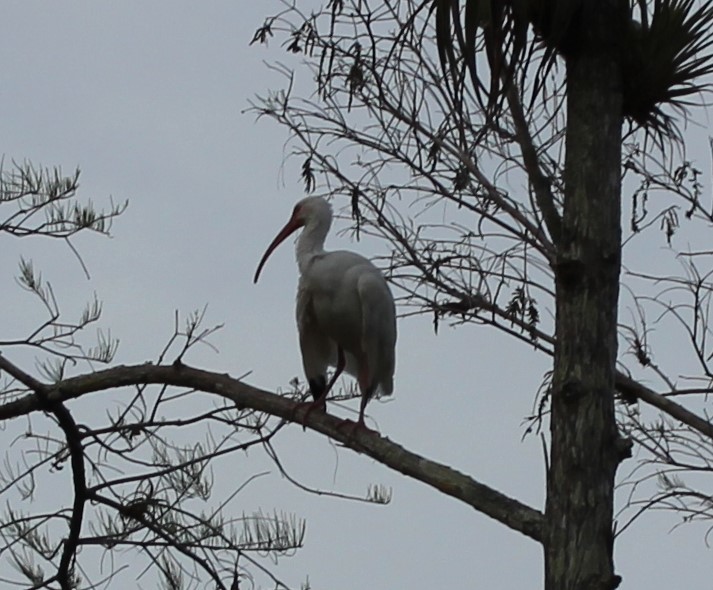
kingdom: Animalia
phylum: Chordata
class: Aves
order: Pelecaniformes
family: Threskiornithidae
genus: Eudocimus
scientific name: Eudocimus albus
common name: White ibis
